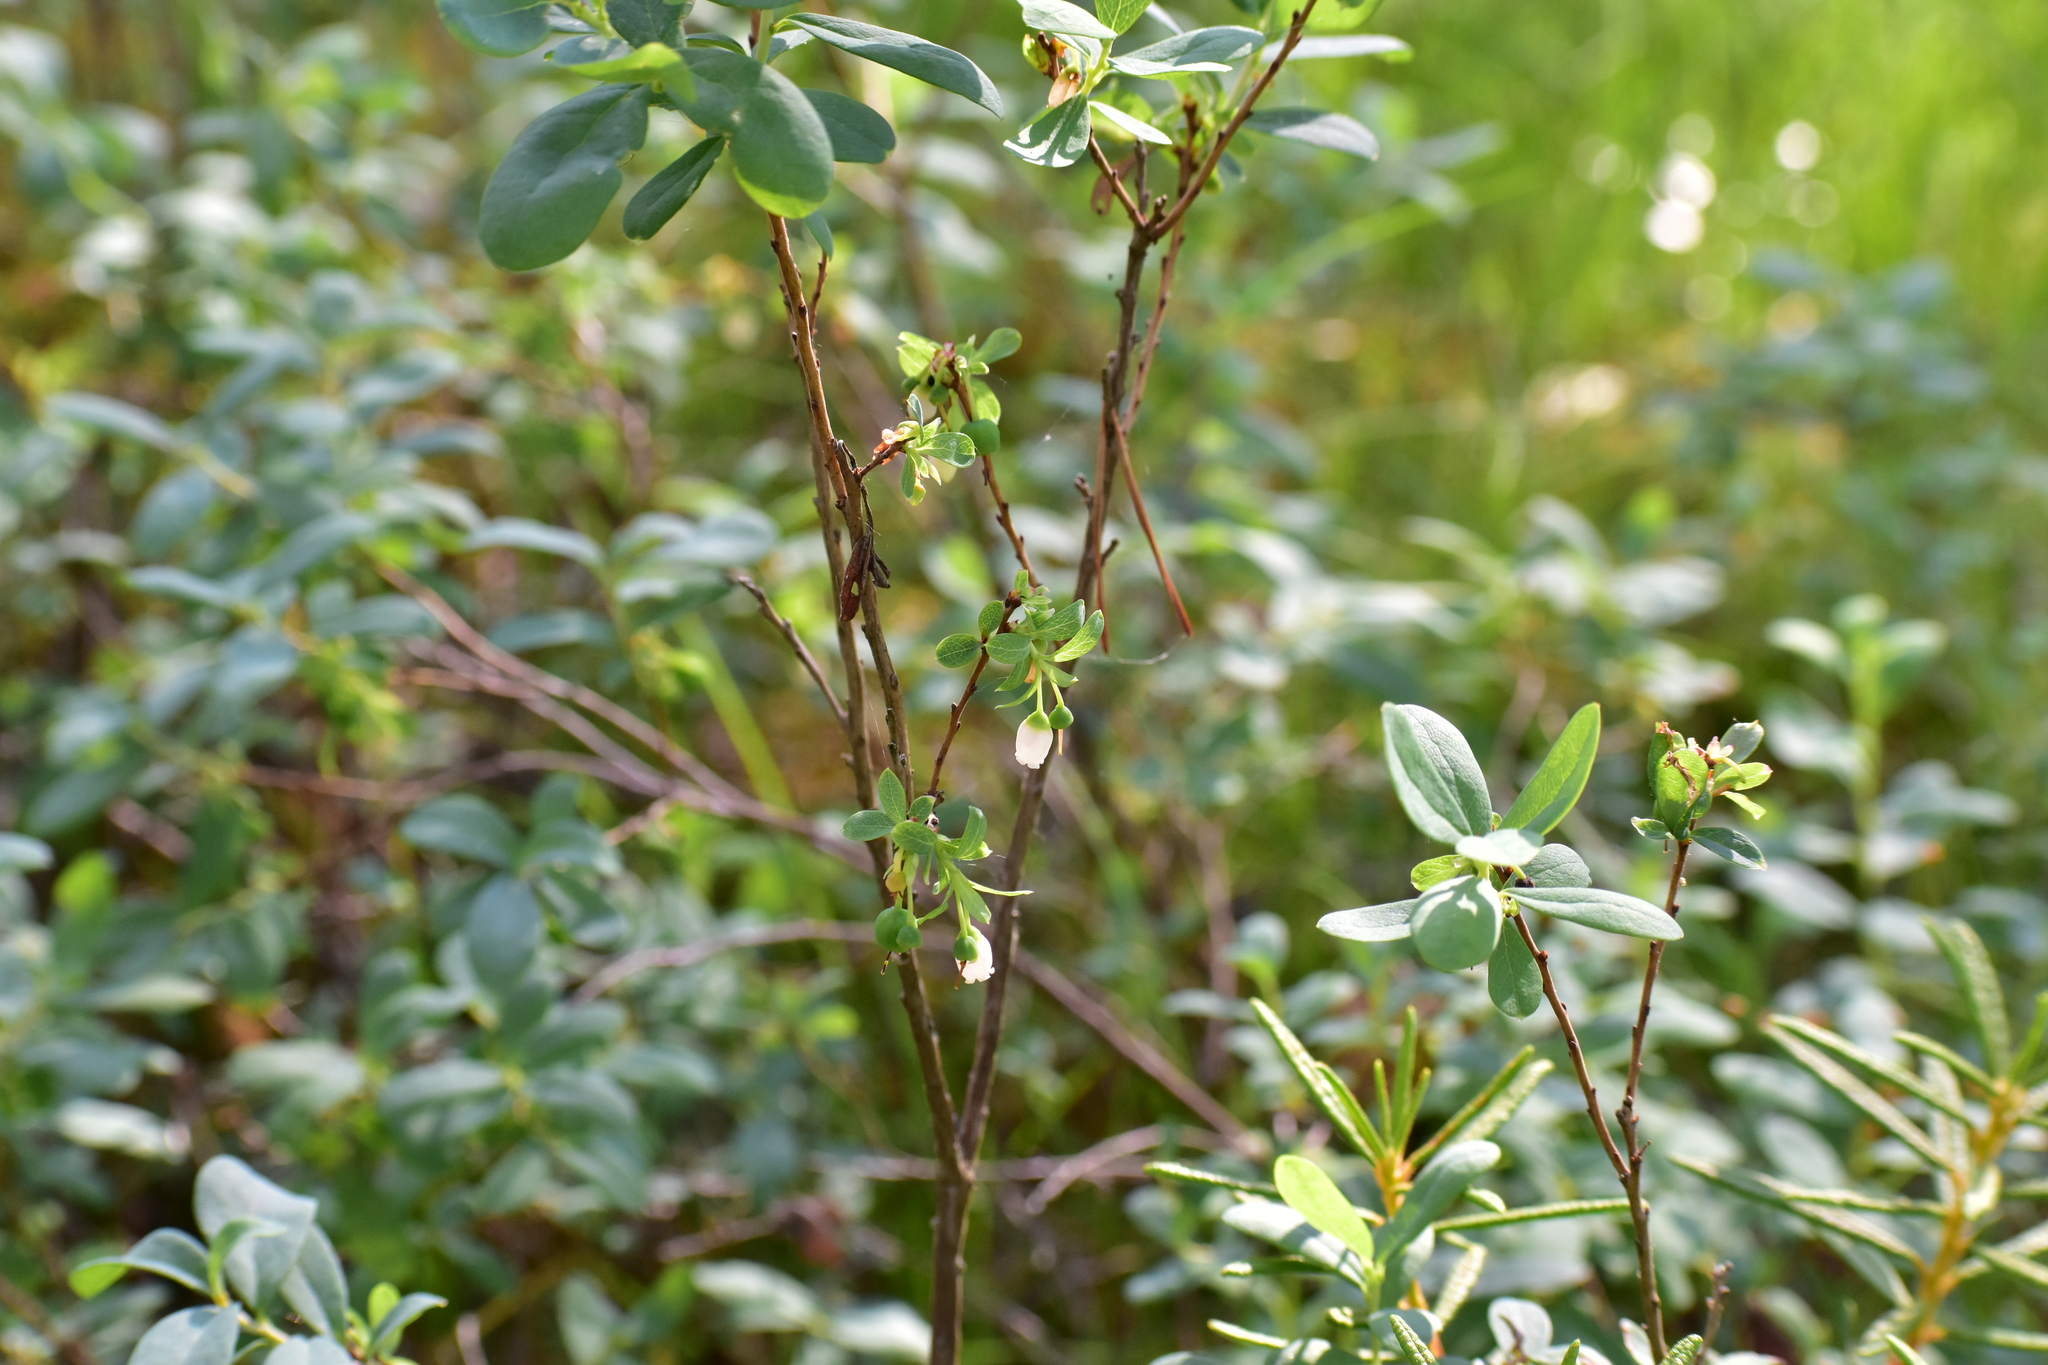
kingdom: Plantae
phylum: Tracheophyta
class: Magnoliopsida
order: Ericales
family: Ericaceae
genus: Vaccinium
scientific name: Vaccinium uliginosum
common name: Bog bilberry
